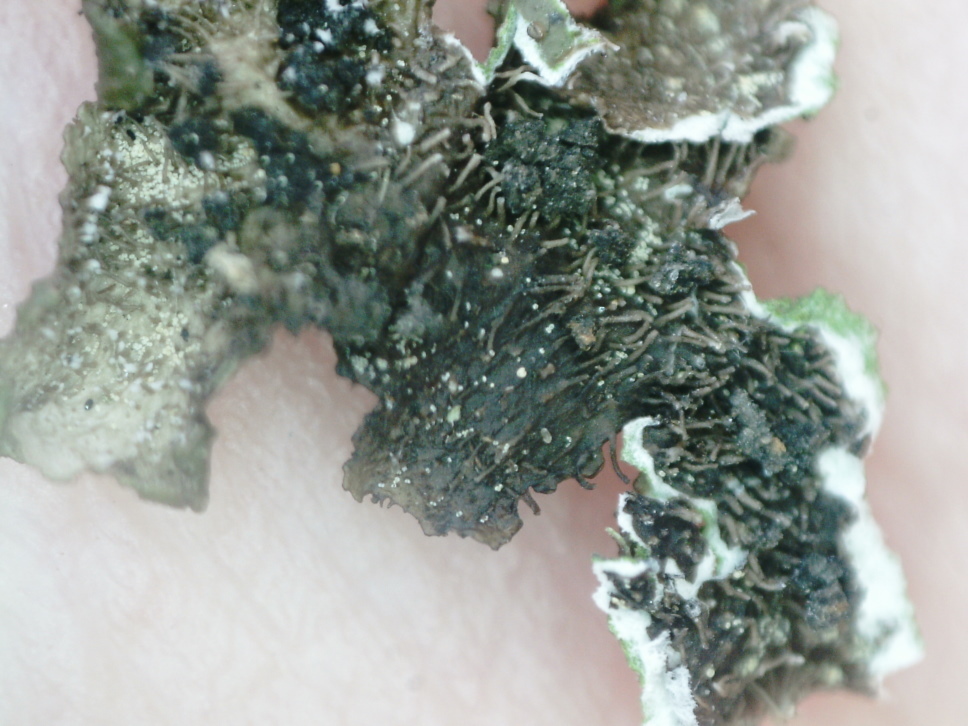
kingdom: Fungi
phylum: Ascomycota
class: Lecanoromycetes
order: Lecanorales
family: Parmeliaceae
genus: Melanohalea
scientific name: Melanohalea exasperata
